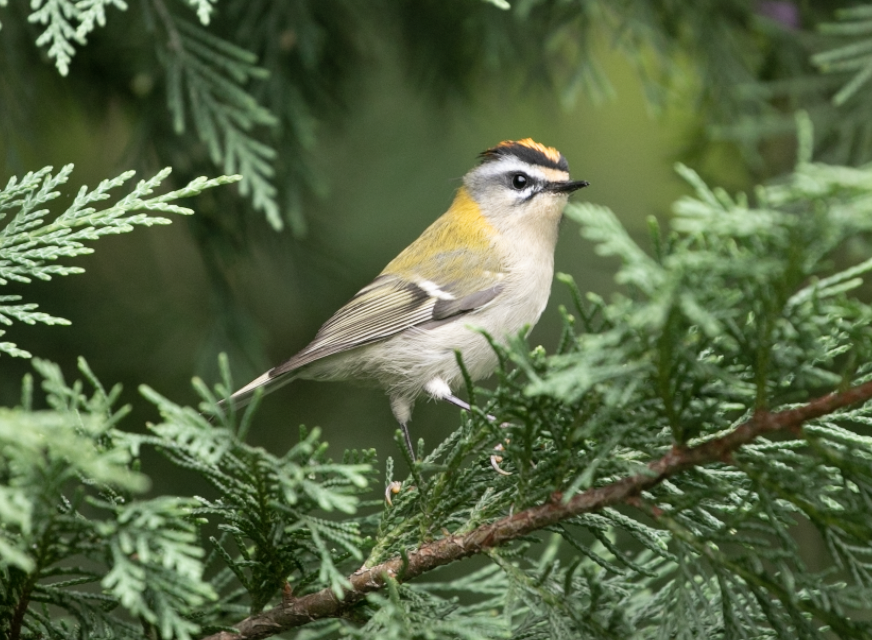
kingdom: Animalia
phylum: Chordata
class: Aves
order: Passeriformes
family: Regulidae
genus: Regulus
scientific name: Regulus ignicapilla
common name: Firecrest
